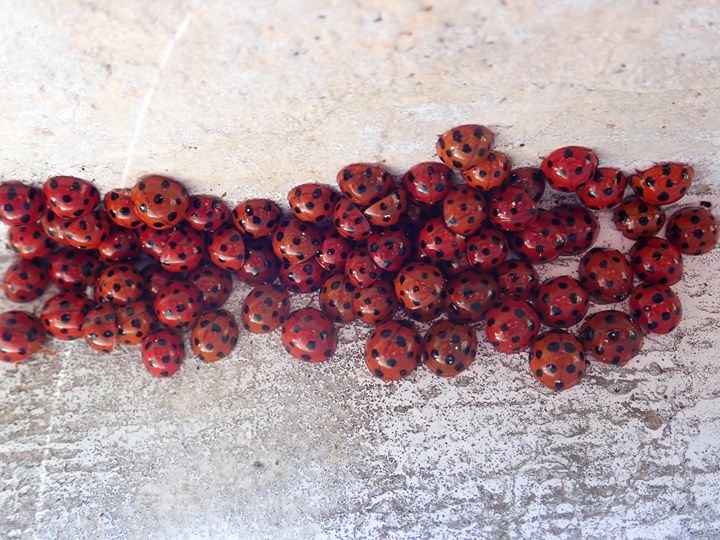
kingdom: Animalia
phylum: Arthropoda
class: Insecta
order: Coleoptera
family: Coccinellidae
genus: Harmonia
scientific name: Harmonia dimidiata
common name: Ladybird beetle
